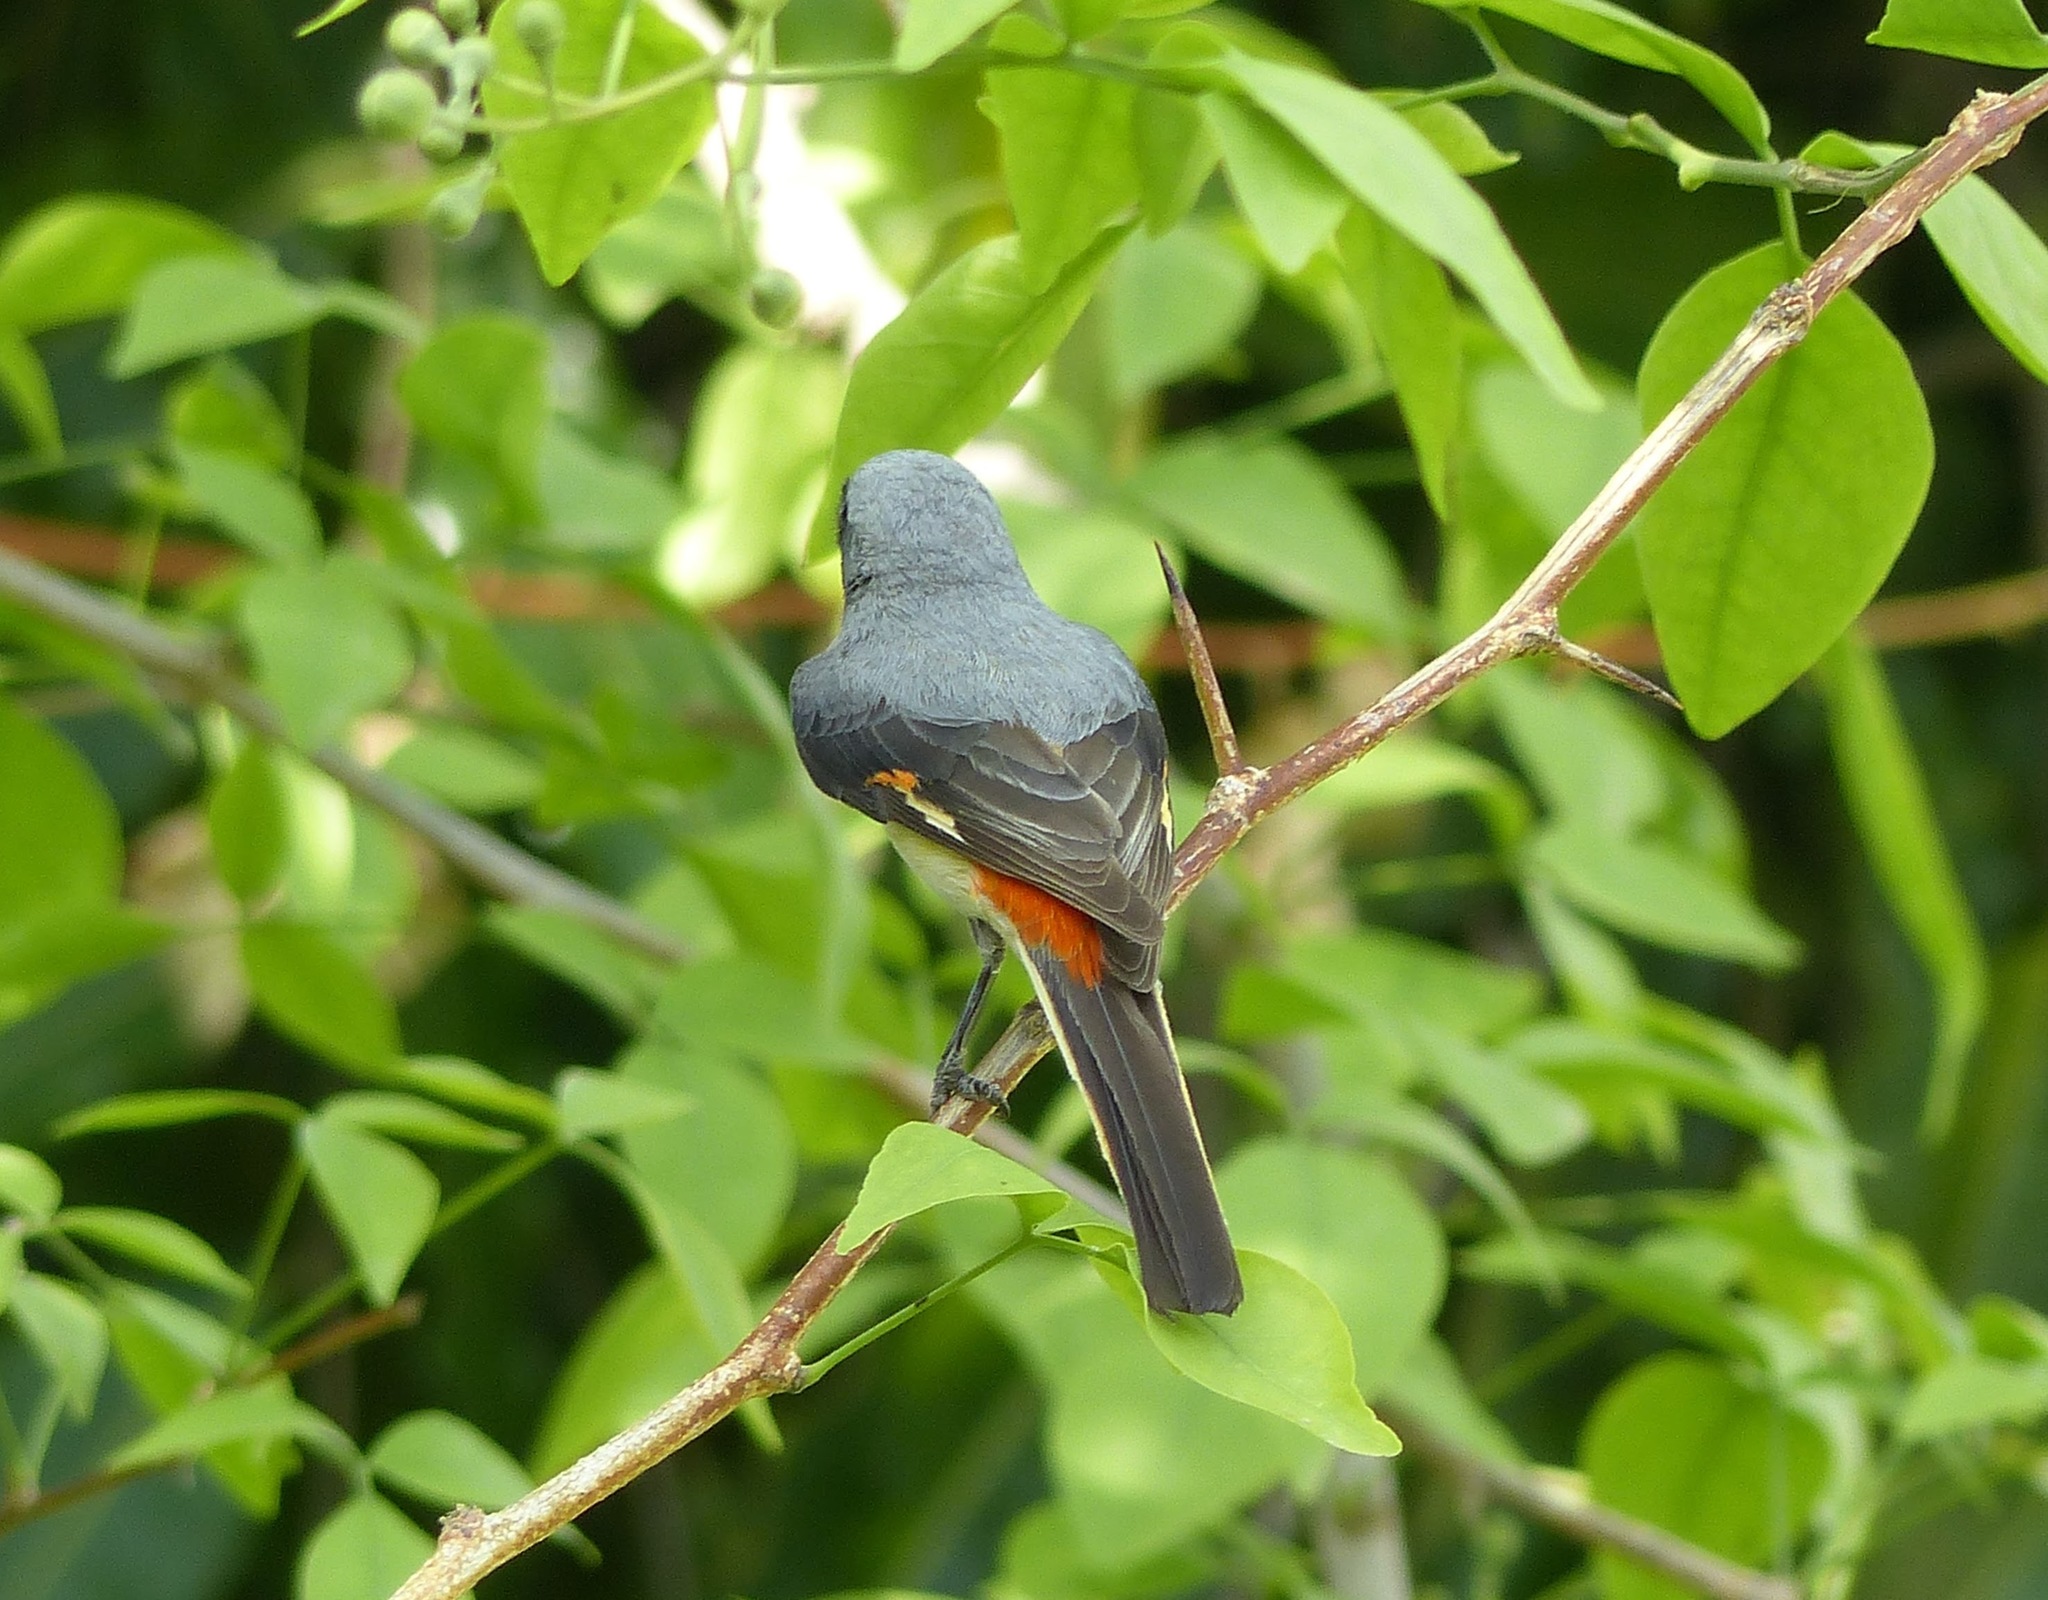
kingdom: Animalia
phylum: Chordata
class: Aves
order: Passeriformes
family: Campephagidae
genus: Pericrocotus
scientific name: Pericrocotus cinnamomeus
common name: Small minivet
